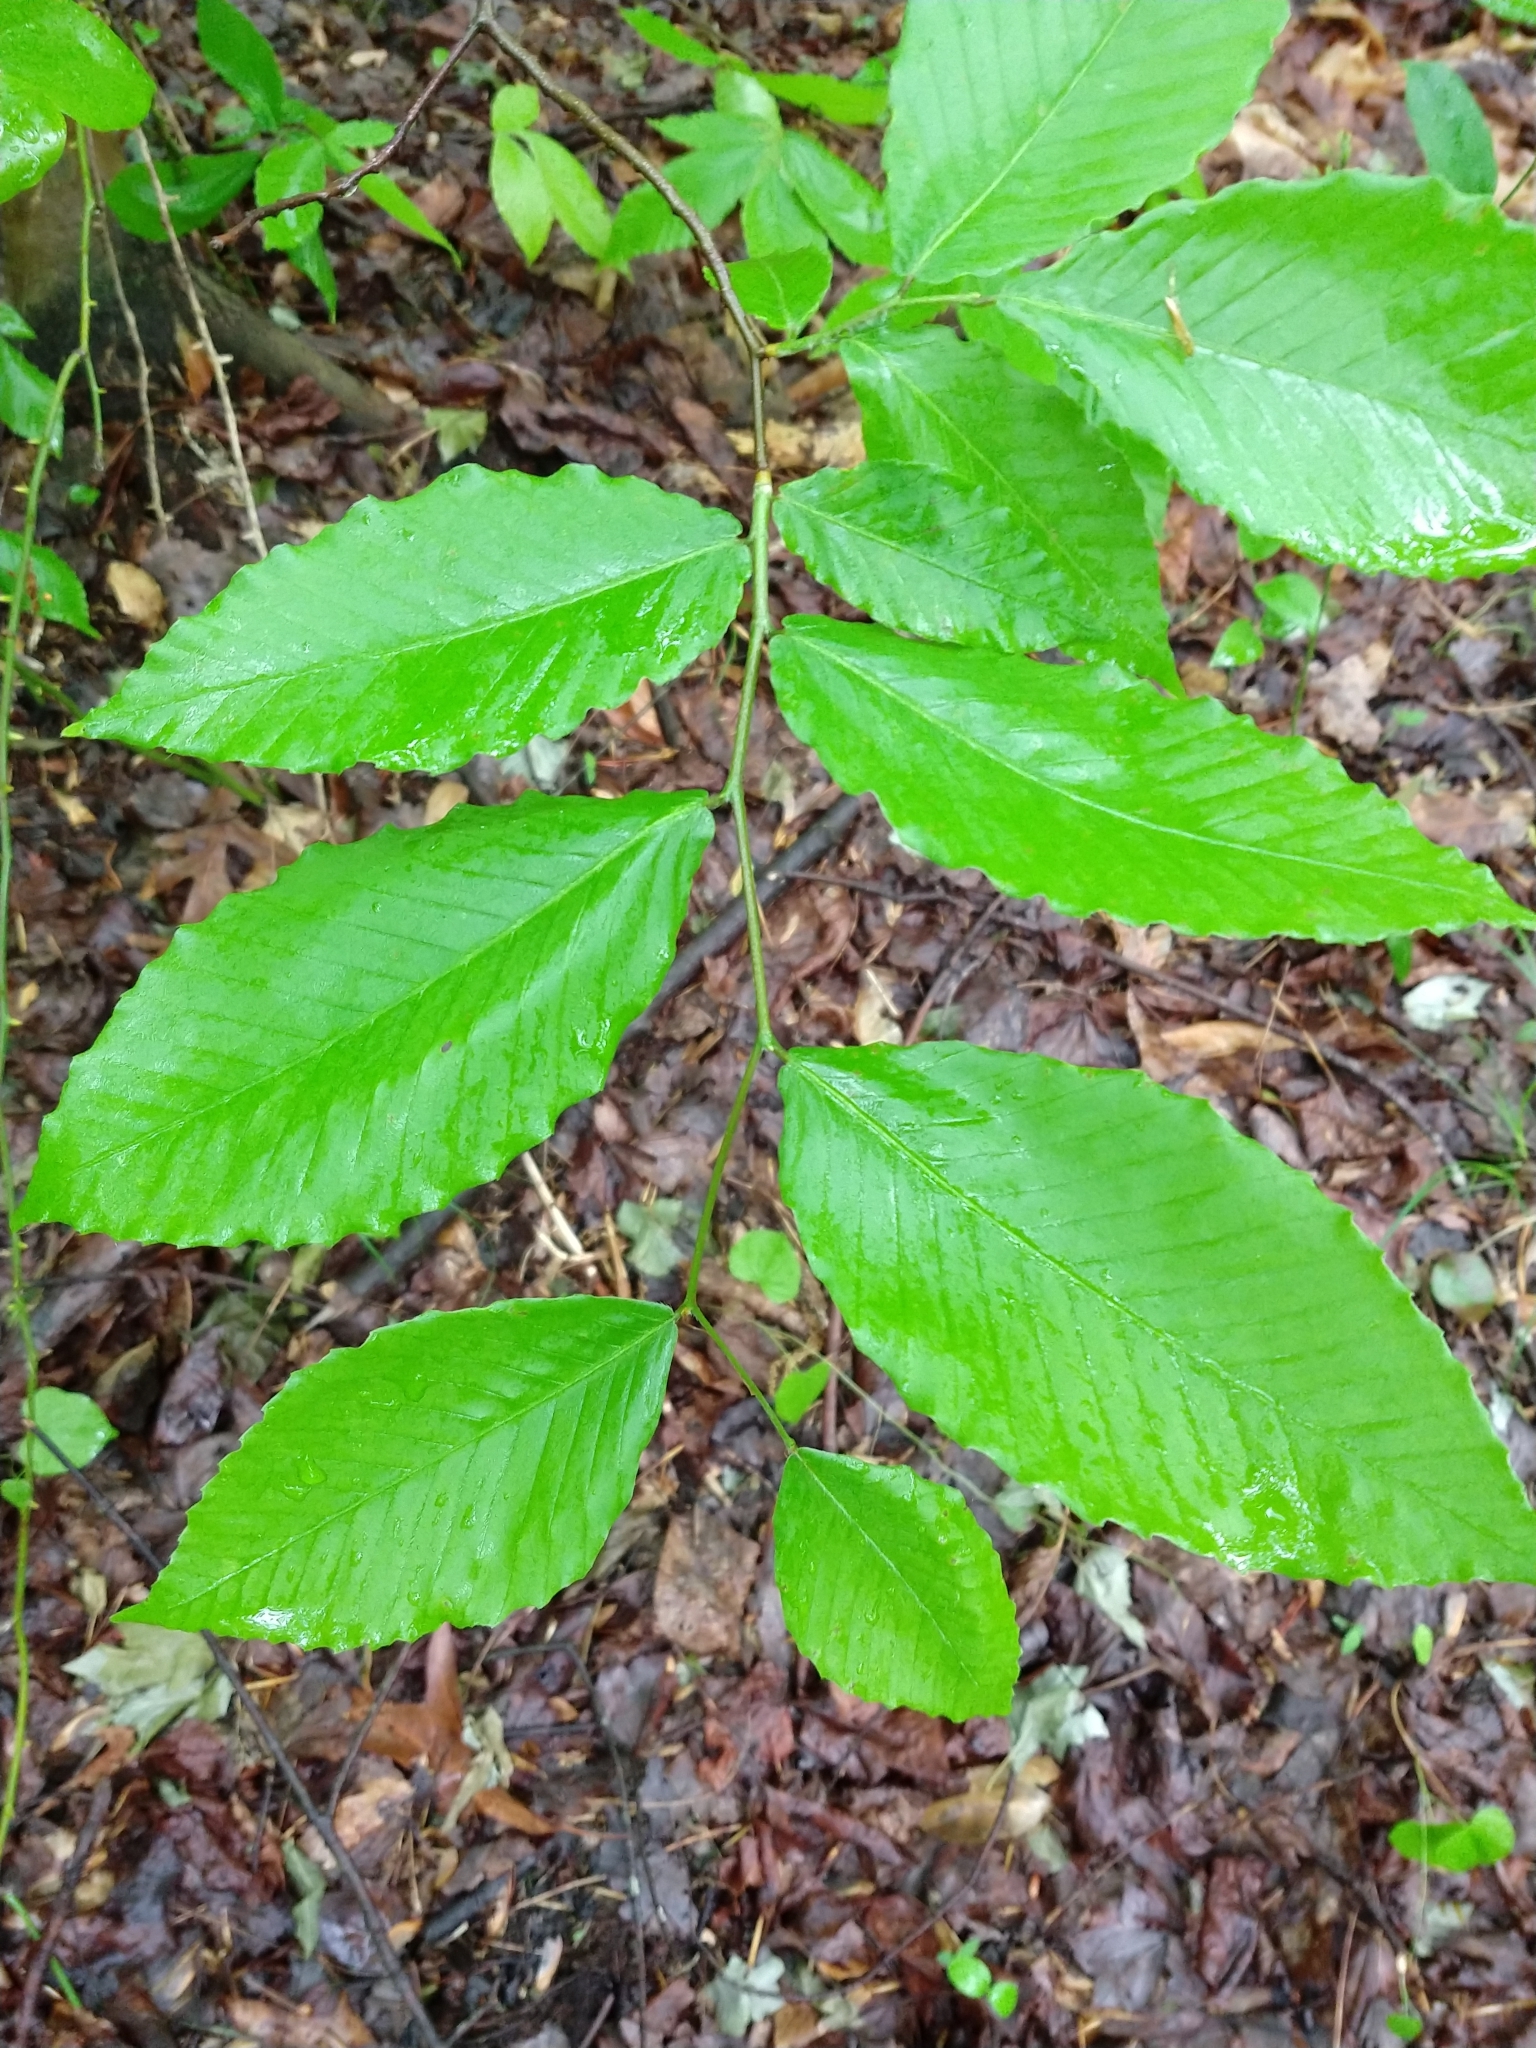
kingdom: Plantae
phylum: Tracheophyta
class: Magnoliopsida
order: Fagales
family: Fagaceae
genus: Fagus
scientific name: Fagus grandifolia
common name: American beech
